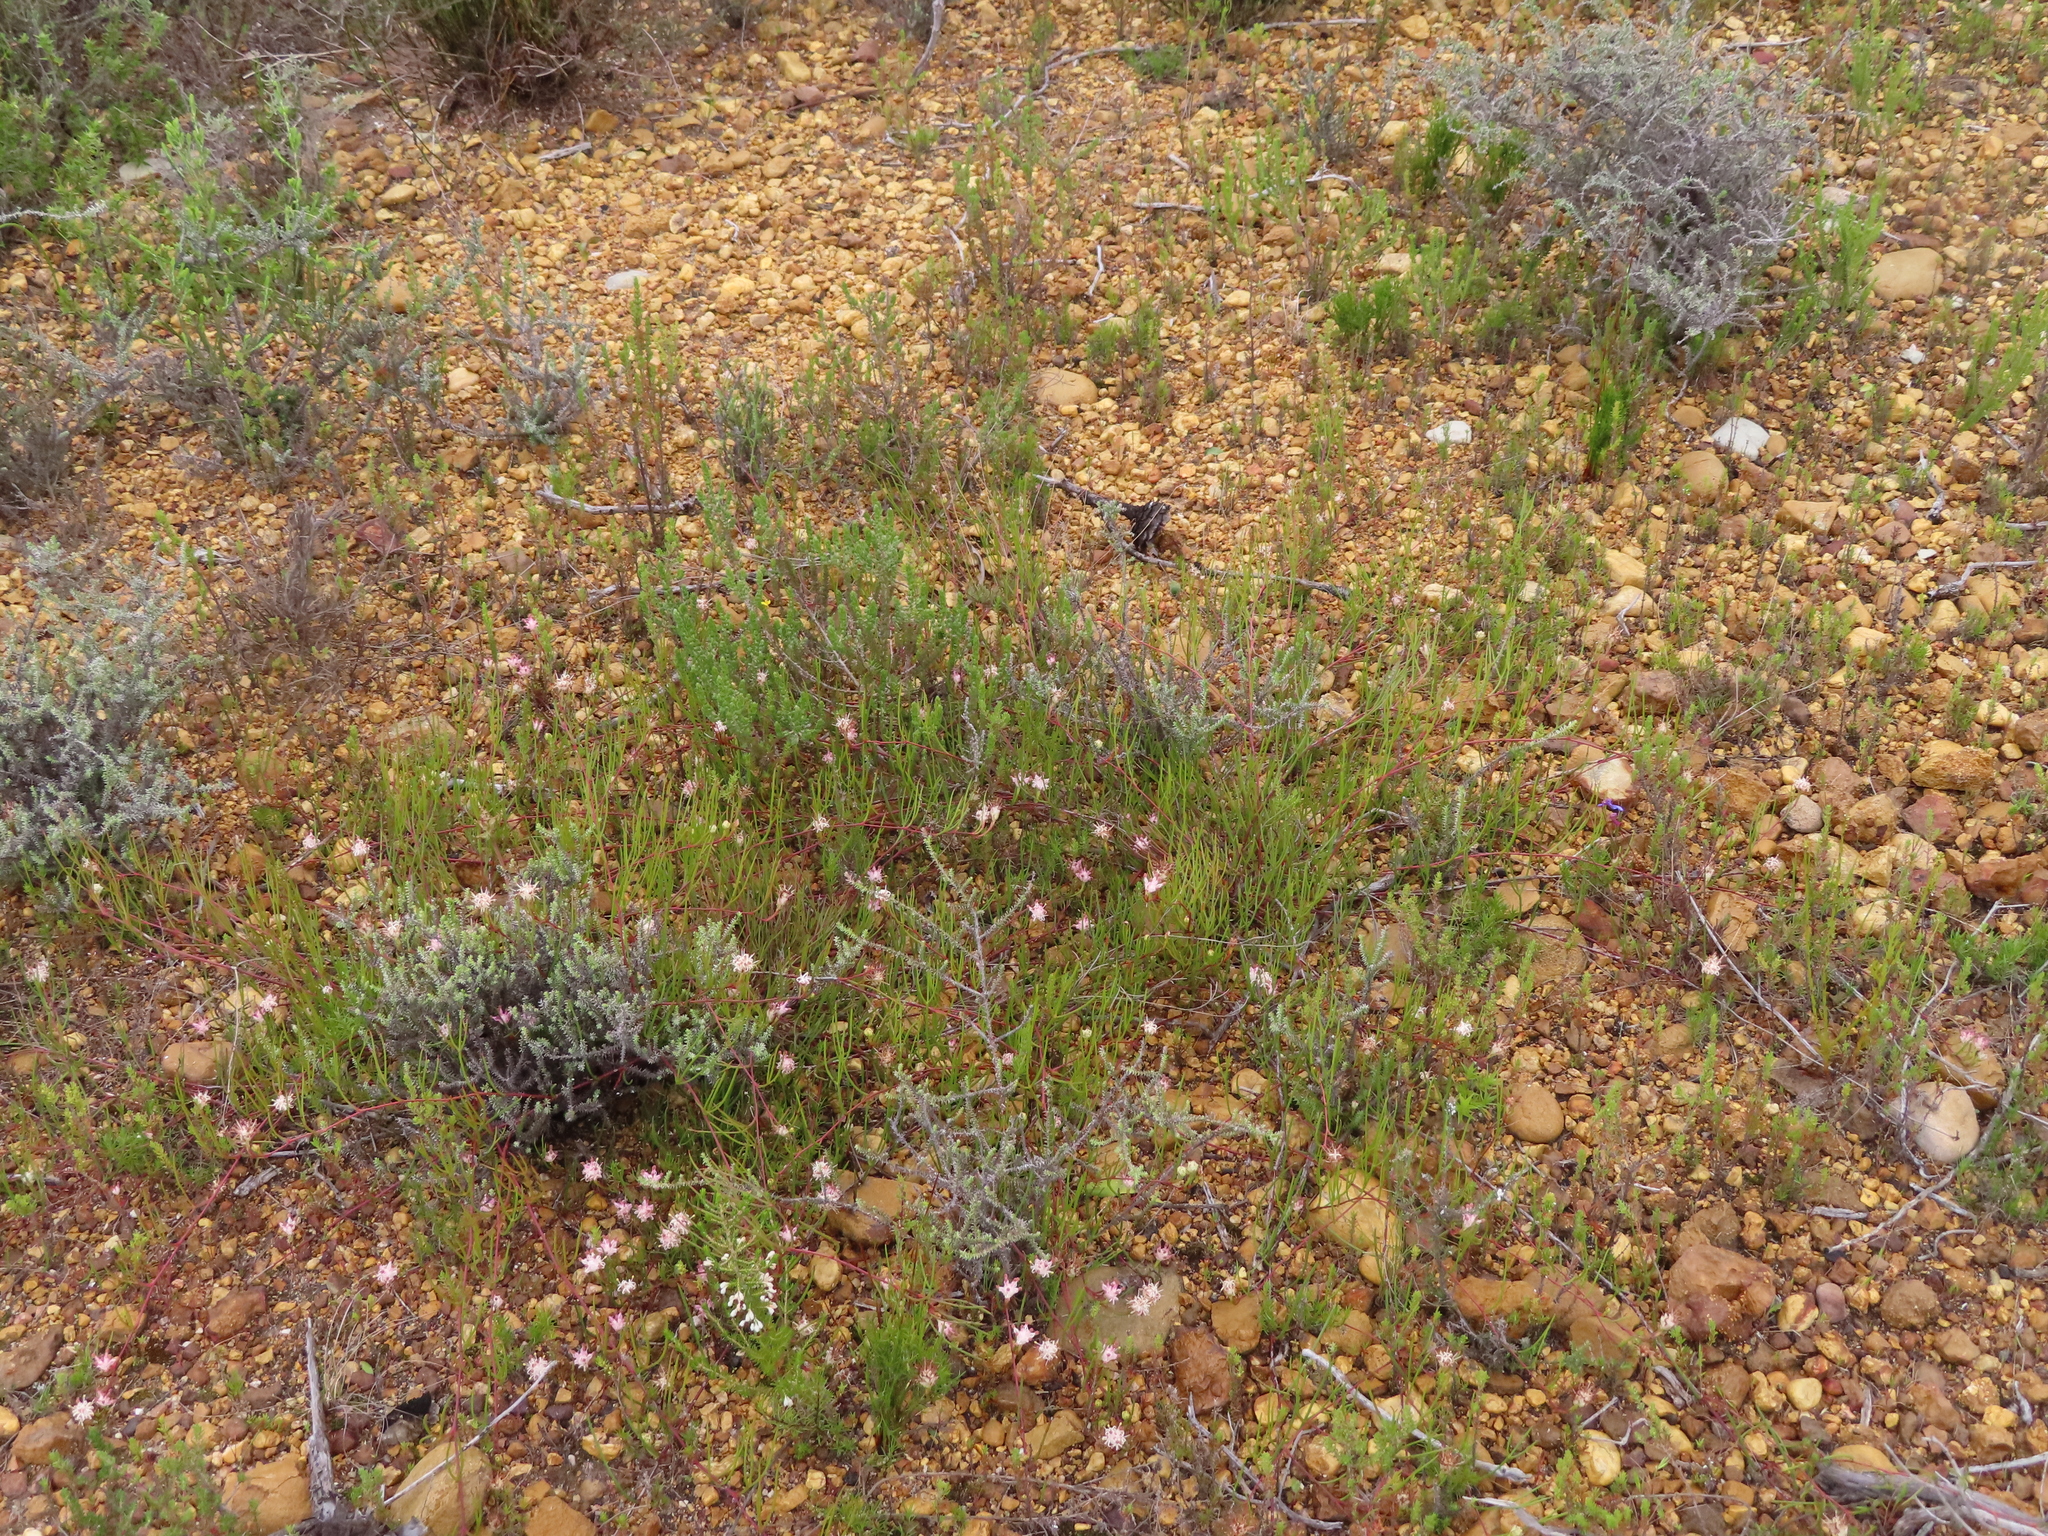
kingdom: Plantae
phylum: Tracheophyta
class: Magnoliopsida
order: Proteales
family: Proteaceae
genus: Serruria
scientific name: Serruria flagellifolia
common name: Houwhoek spiderhead
